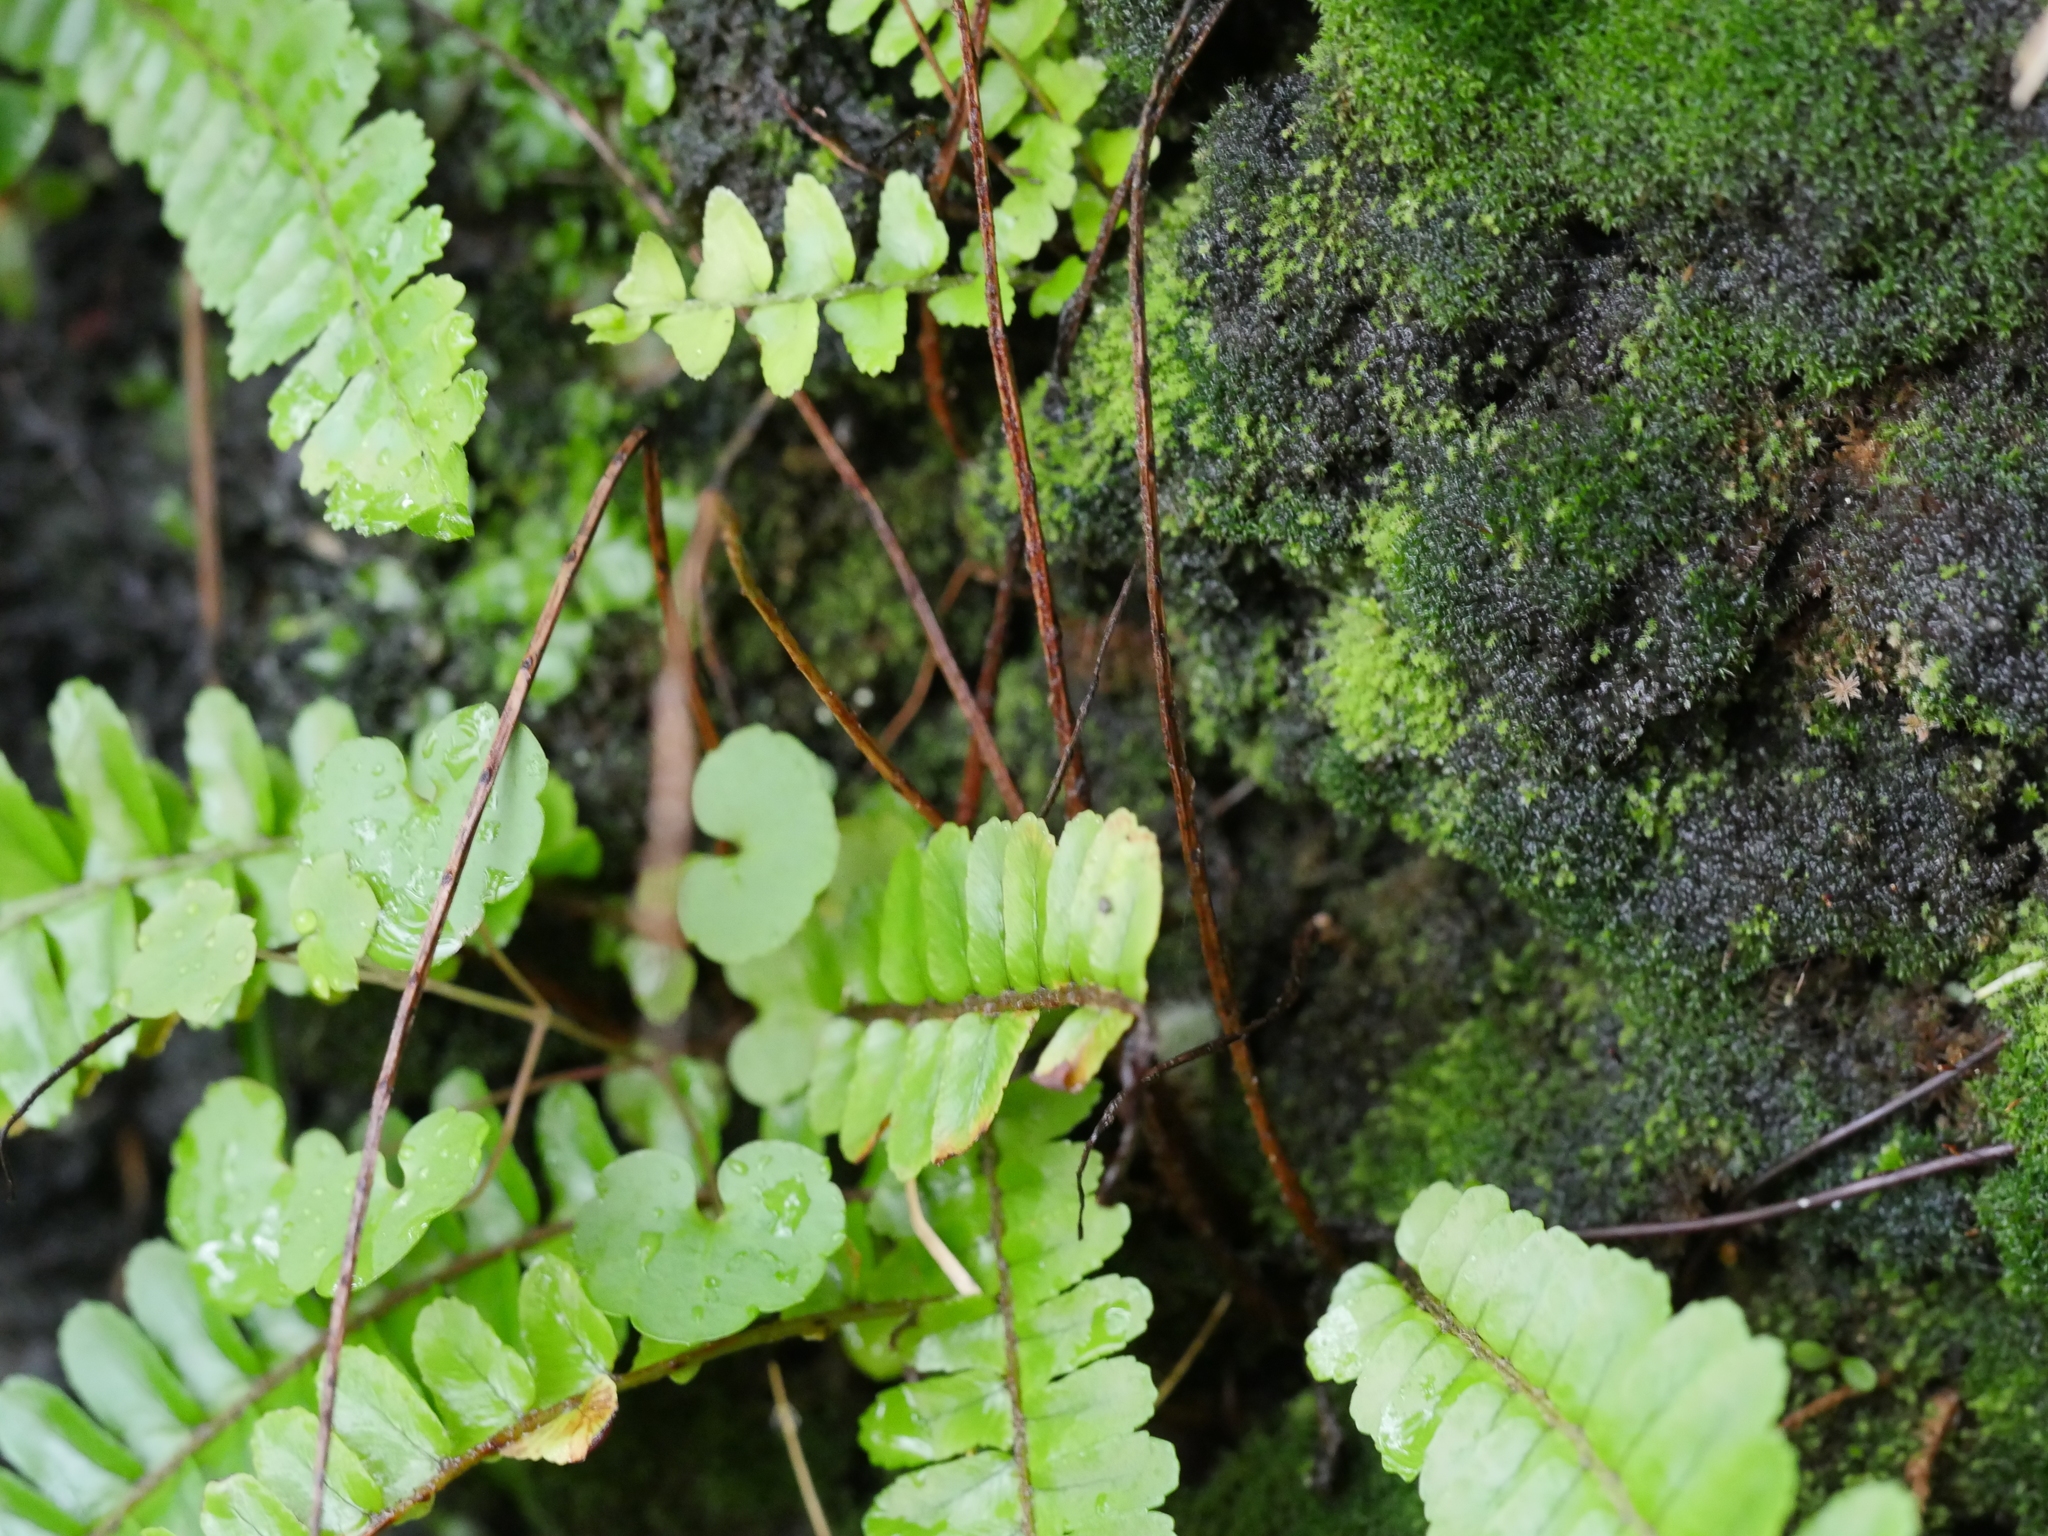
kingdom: Plantae
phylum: Tracheophyta
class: Polypodiopsida
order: Polypodiales
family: Nephrolepidaceae
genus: Nephrolepis
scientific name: Nephrolepis cordifolia
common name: Narrow swordfern
